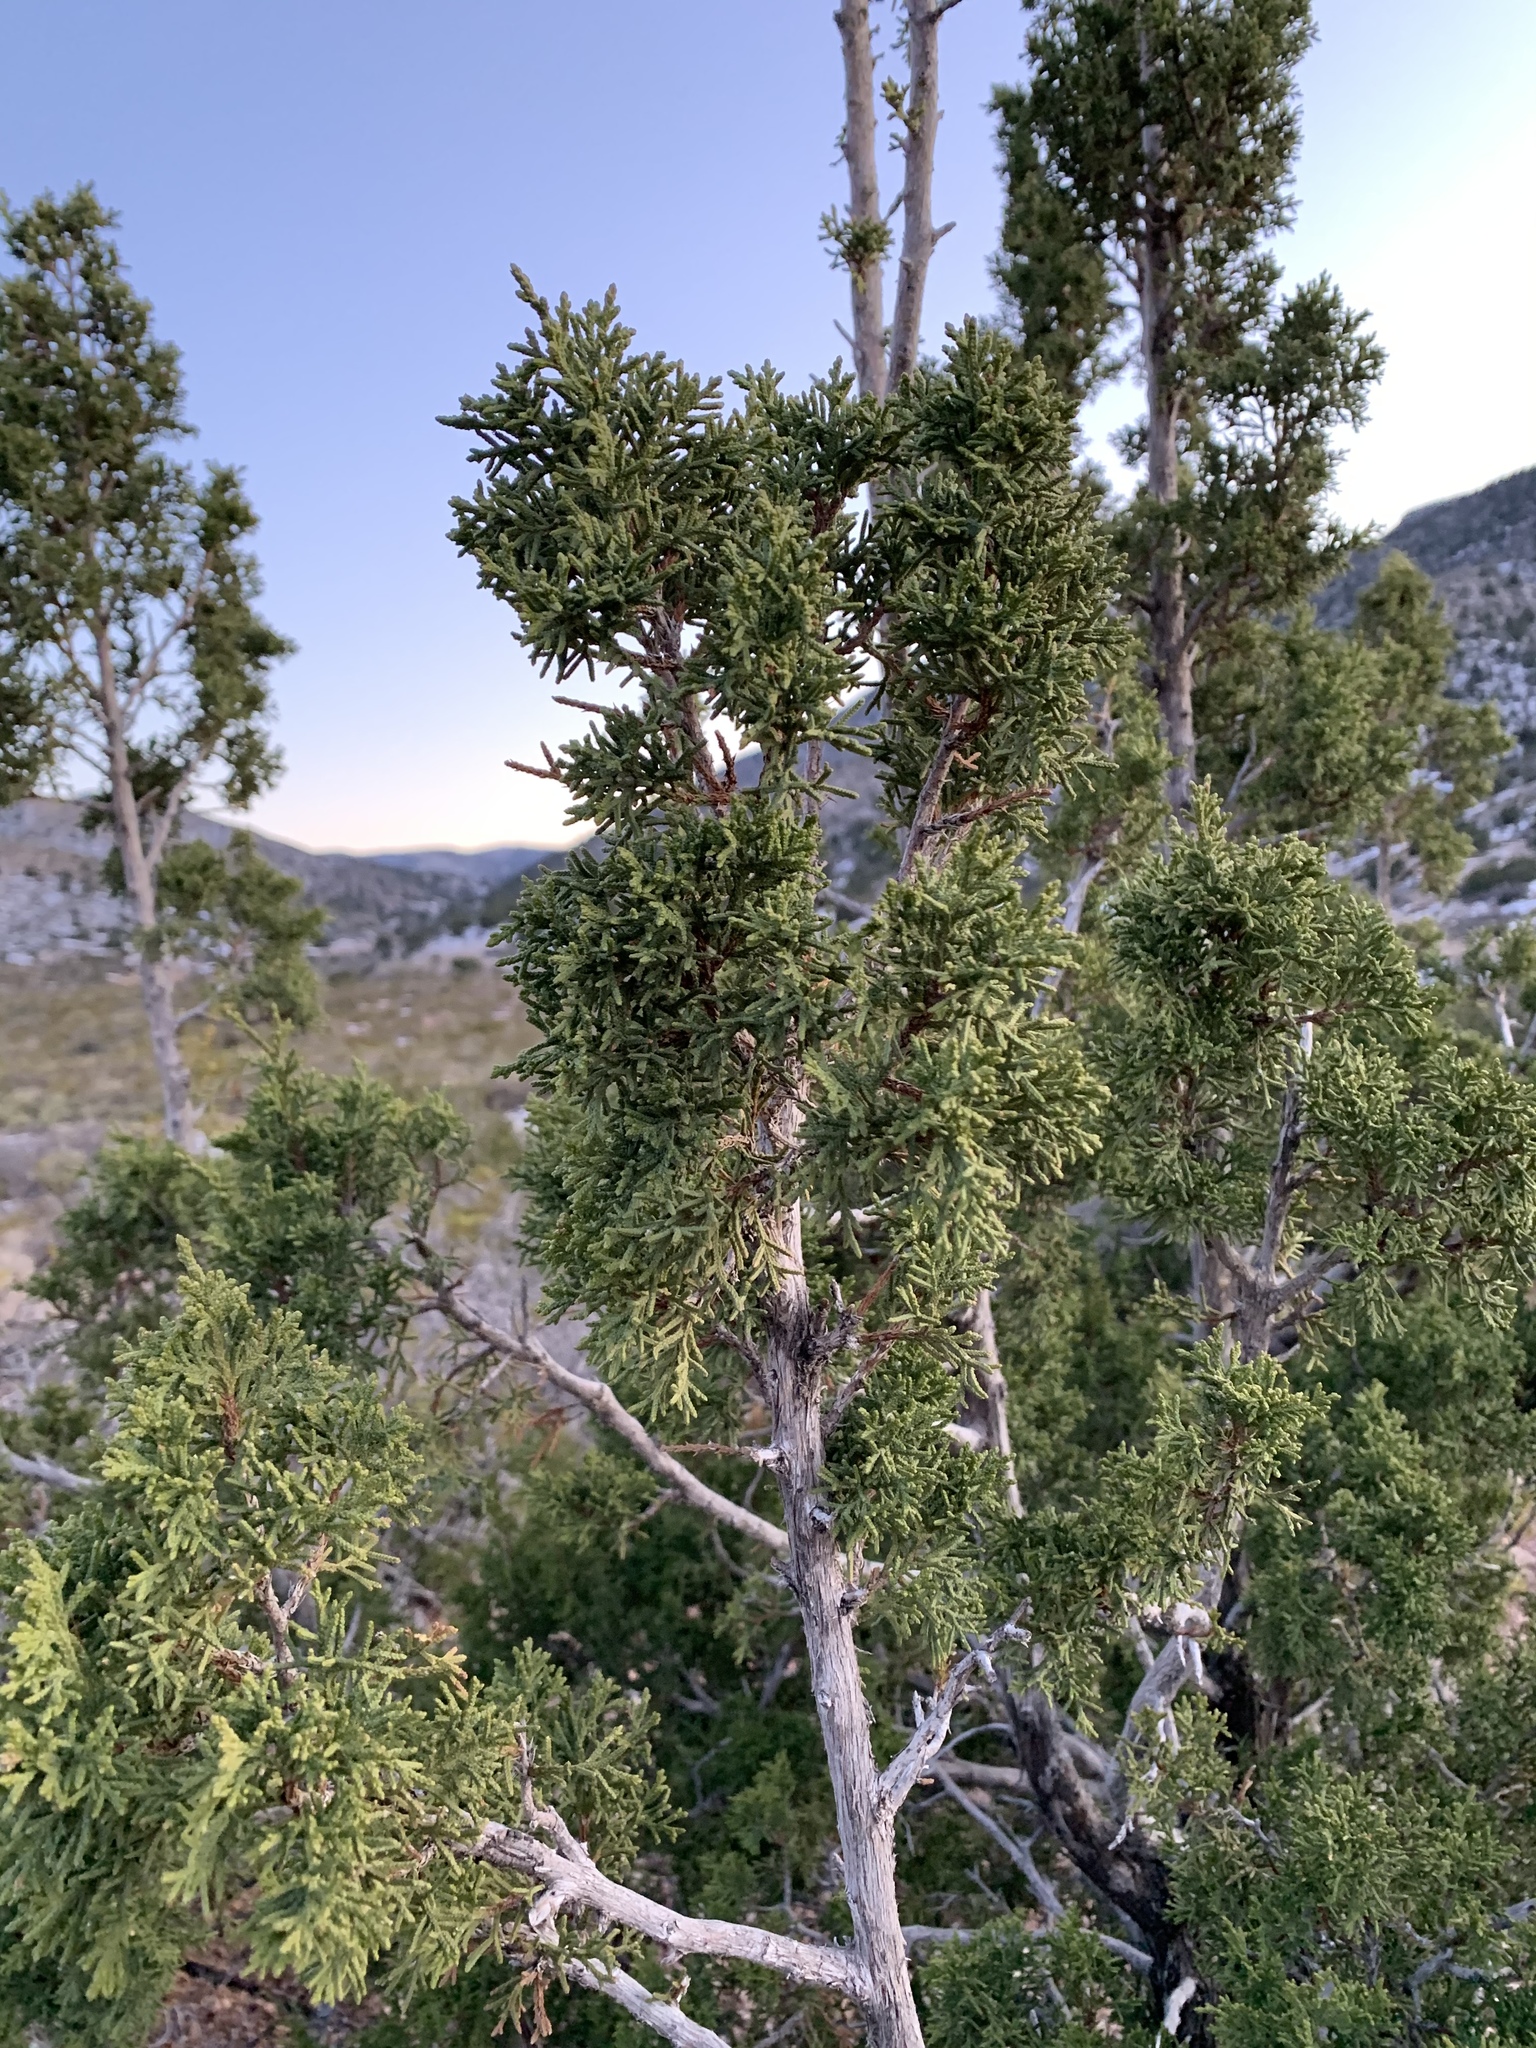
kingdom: Plantae
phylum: Tracheophyta
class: Pinopsida
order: Pinales
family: Cupressaceae
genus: Juniperus
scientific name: Juniperus monosperma
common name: One-seed juniper
